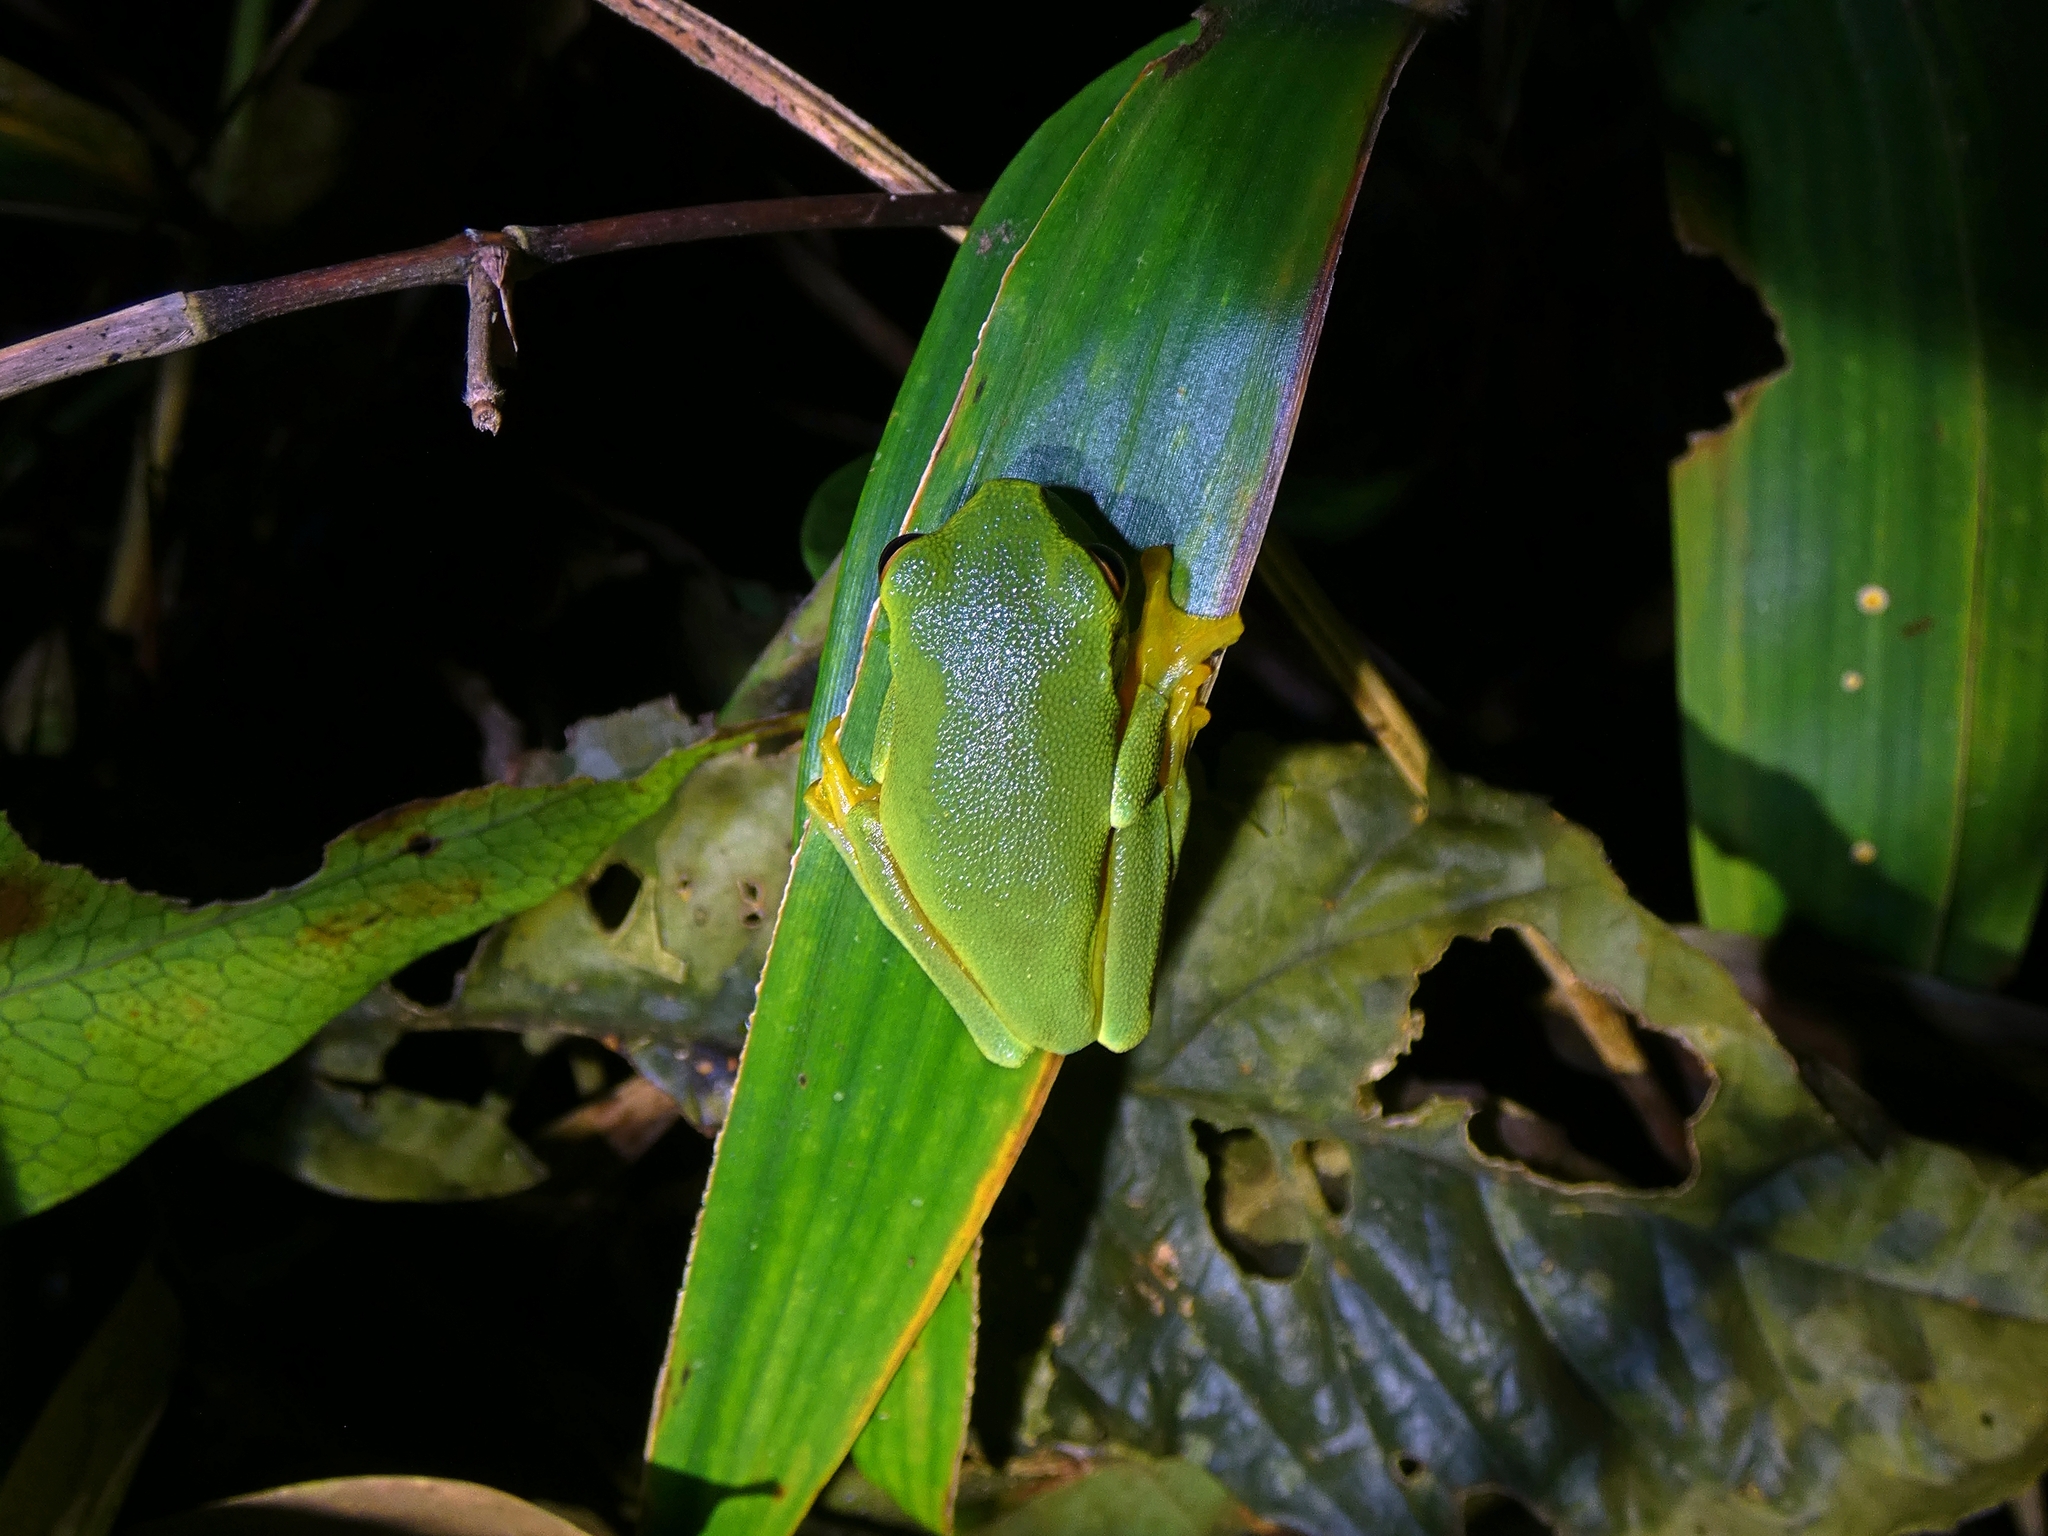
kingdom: Animalia
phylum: Chordata
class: Amphibia
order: Anura
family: Pelodryadidae
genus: Ranoidea
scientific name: Ranoidea xanthomera
